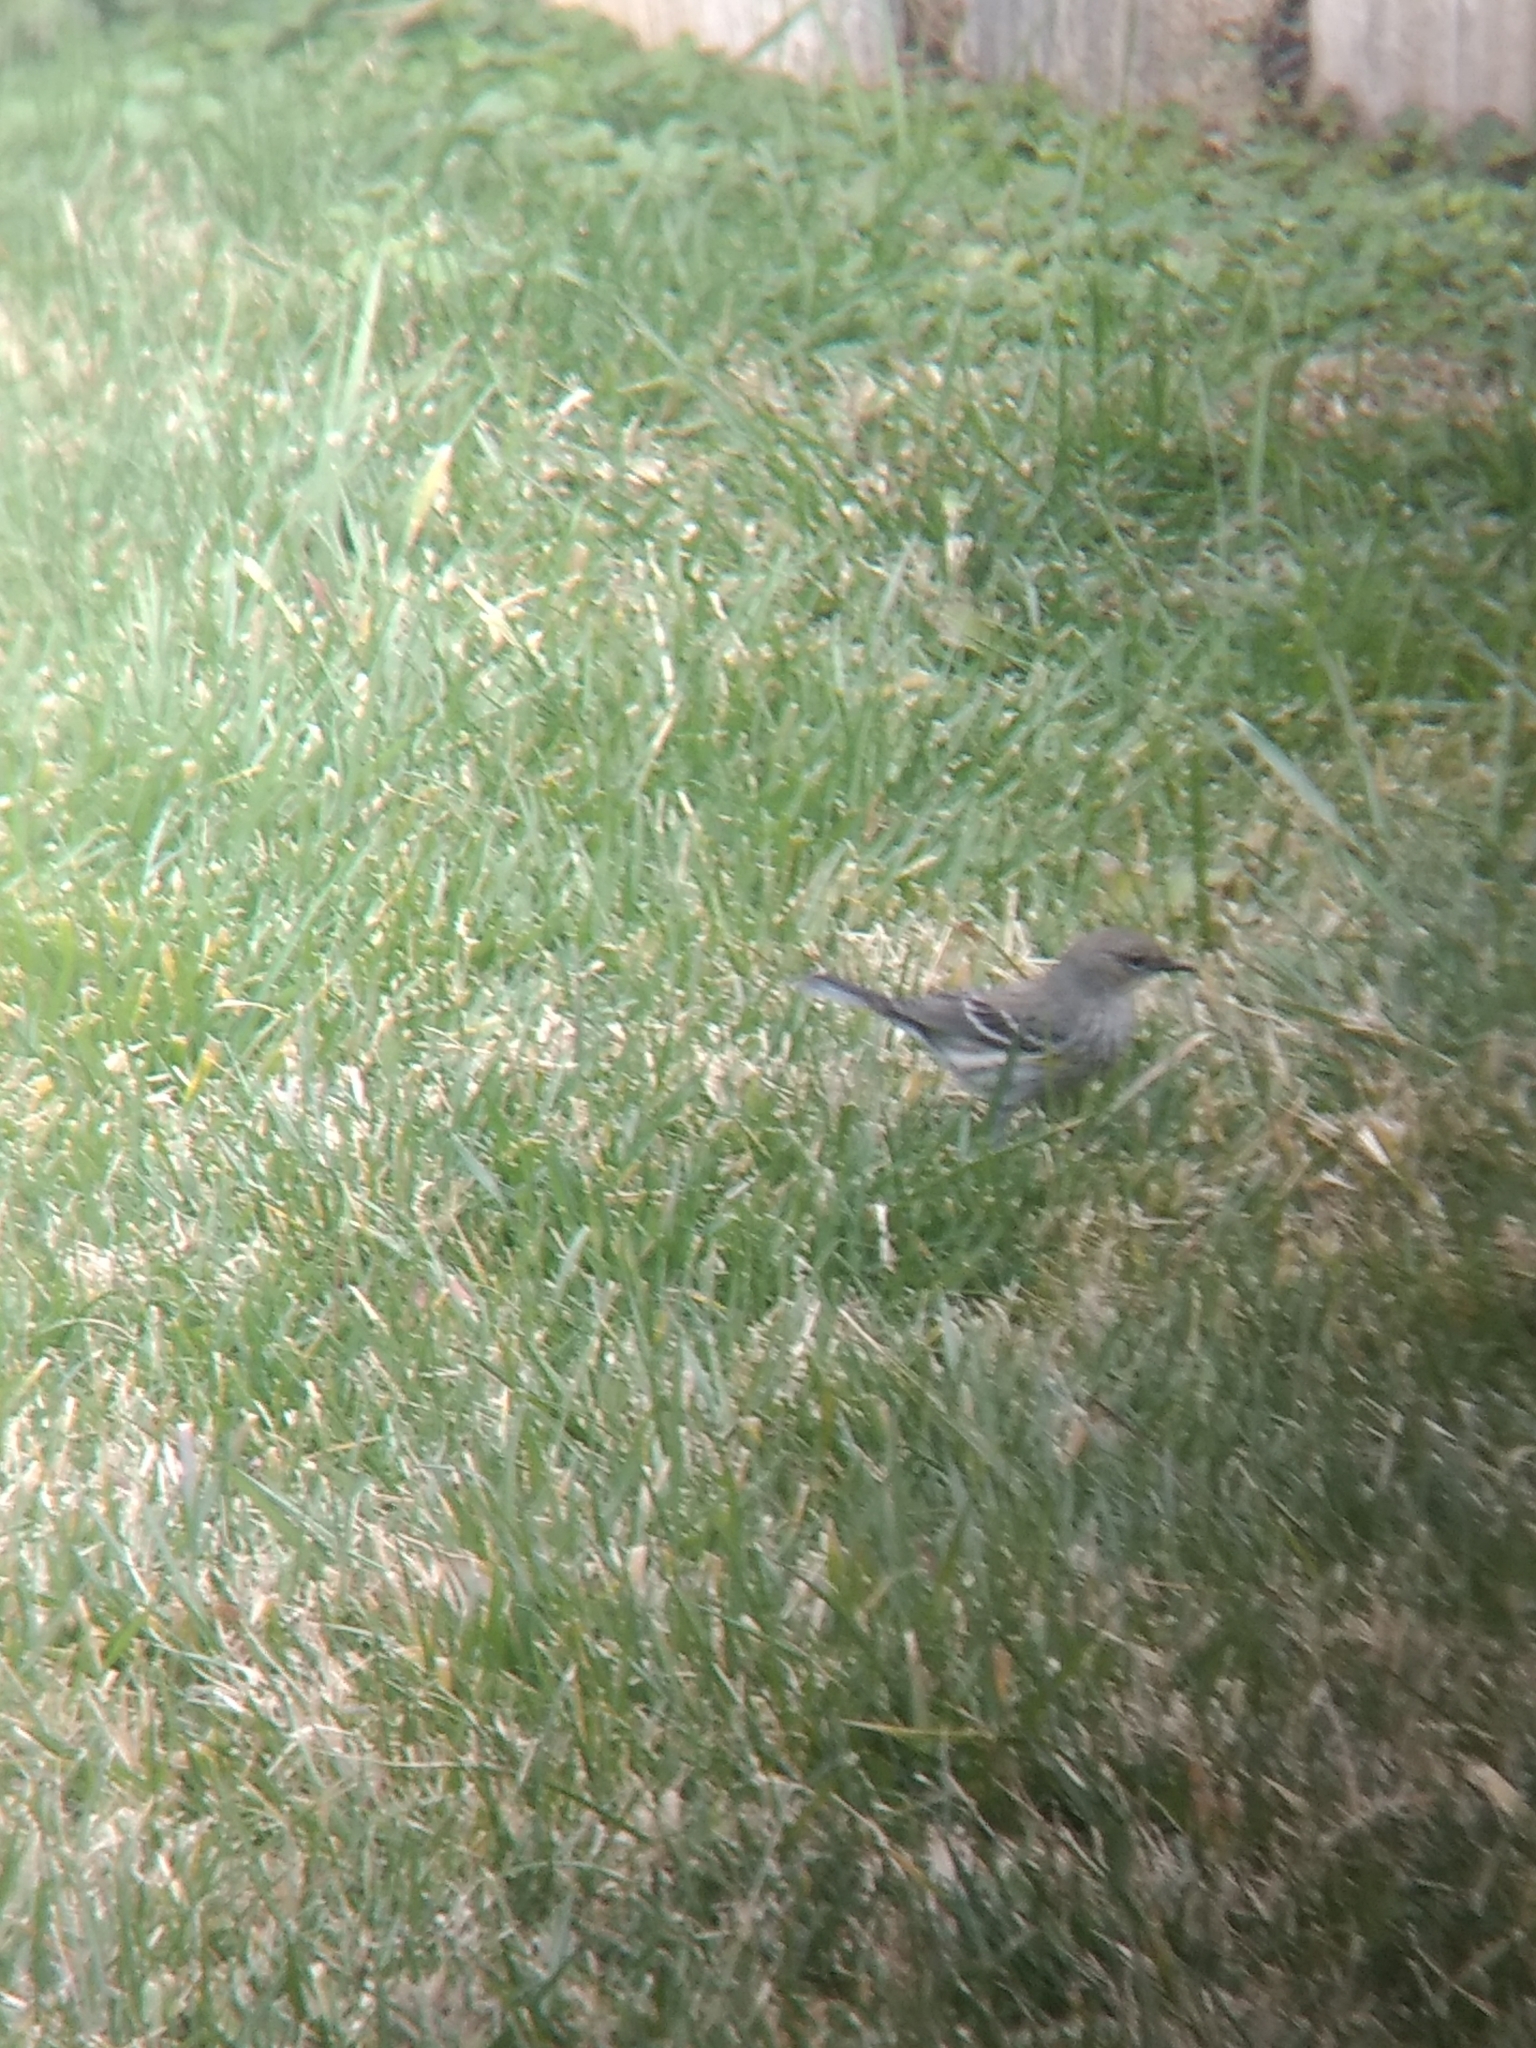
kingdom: Animalia
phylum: Chordata
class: Aves
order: Passeriformes
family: Parulidae
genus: Setophaga
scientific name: Setophaga coronata
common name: Myrtle warbler
